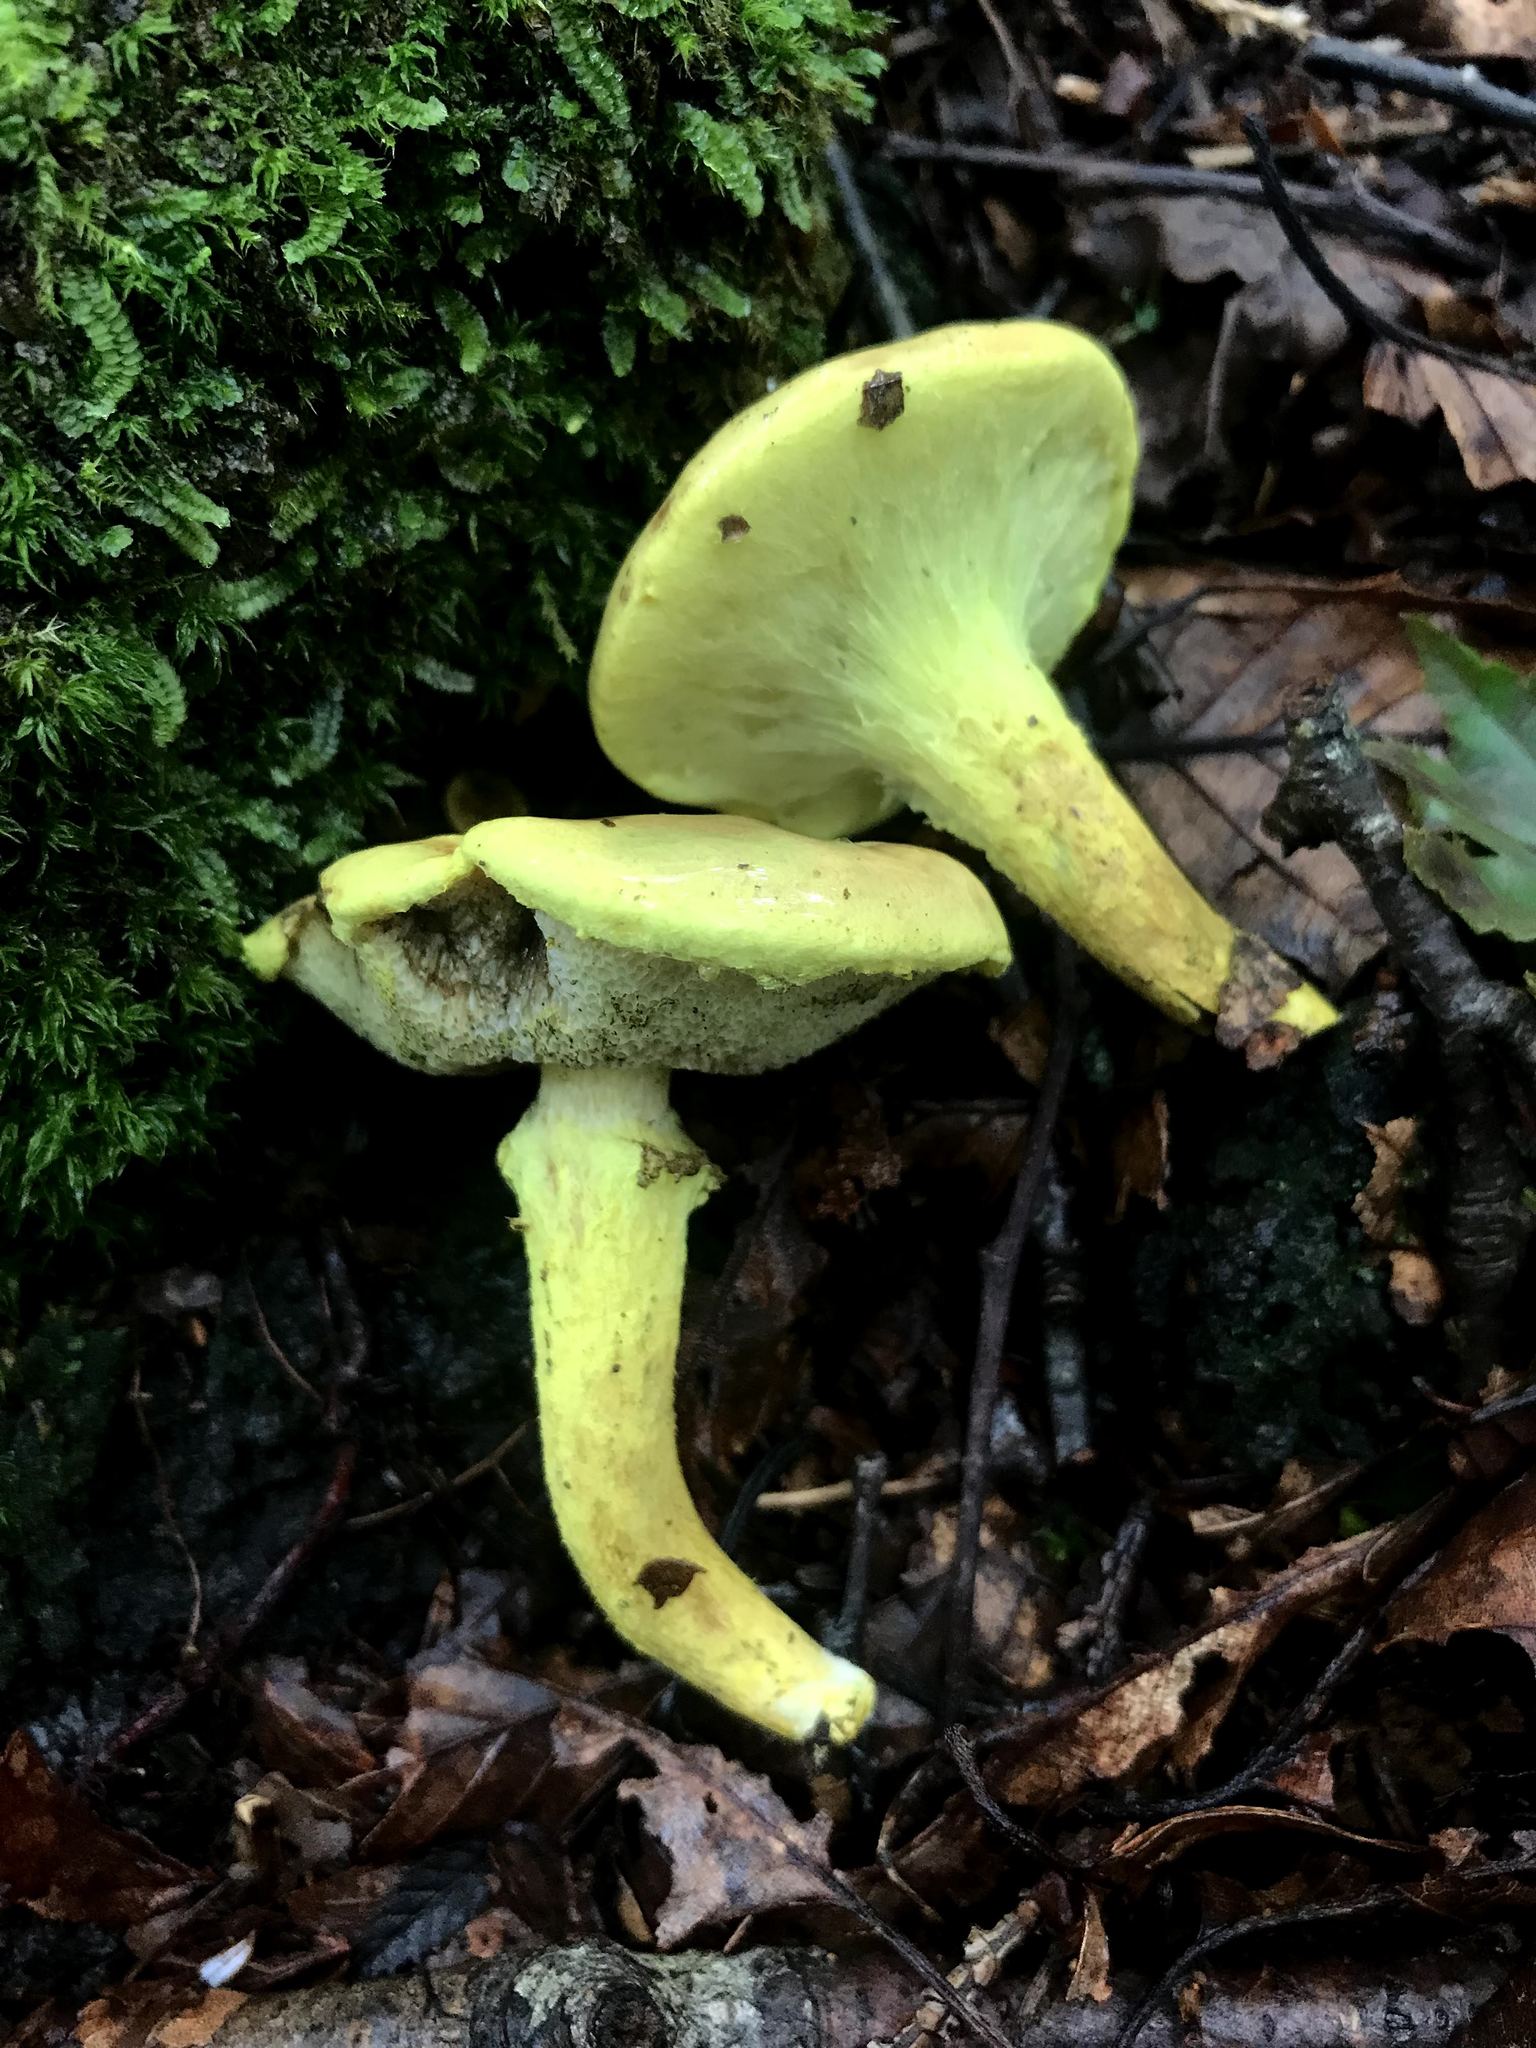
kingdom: Fungi
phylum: Basidiomycota
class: Agaricomycetes
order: Boletales
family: Boletaceae
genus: Pulveroboletus
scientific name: Pulveroboletus ravenelii
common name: Powdery sulfur bolete
